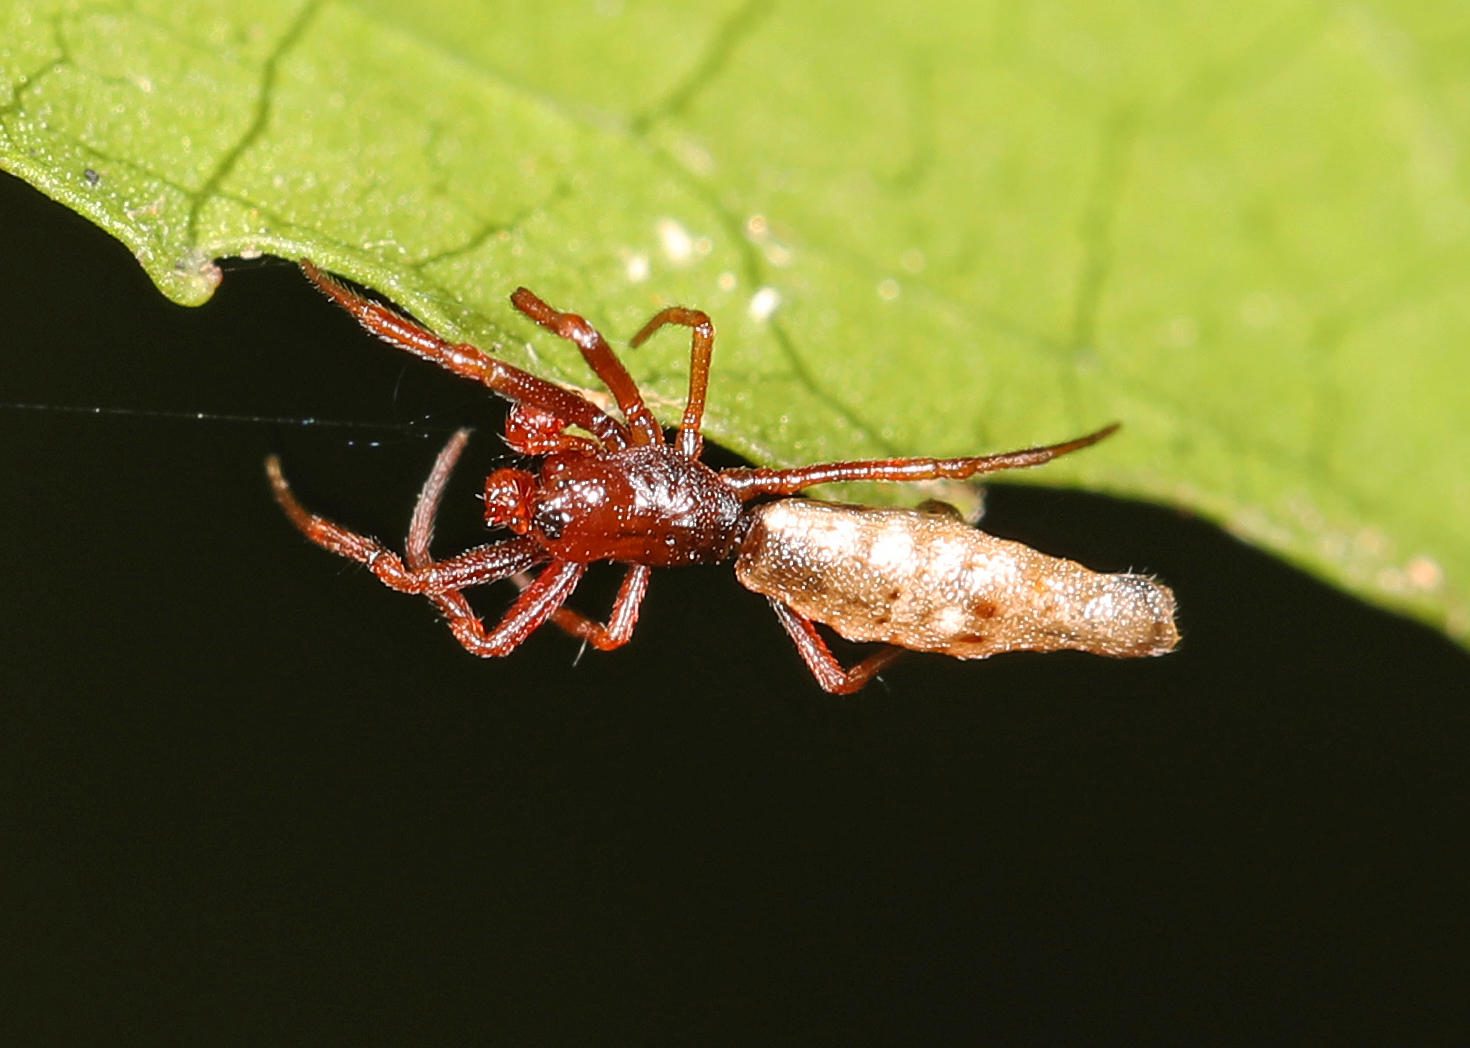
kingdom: Animalia
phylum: Arthropoda
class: Arachnida
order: Araneae
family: Araneidae
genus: Micrathena
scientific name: Micrathena gracilis
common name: Orb weavers
